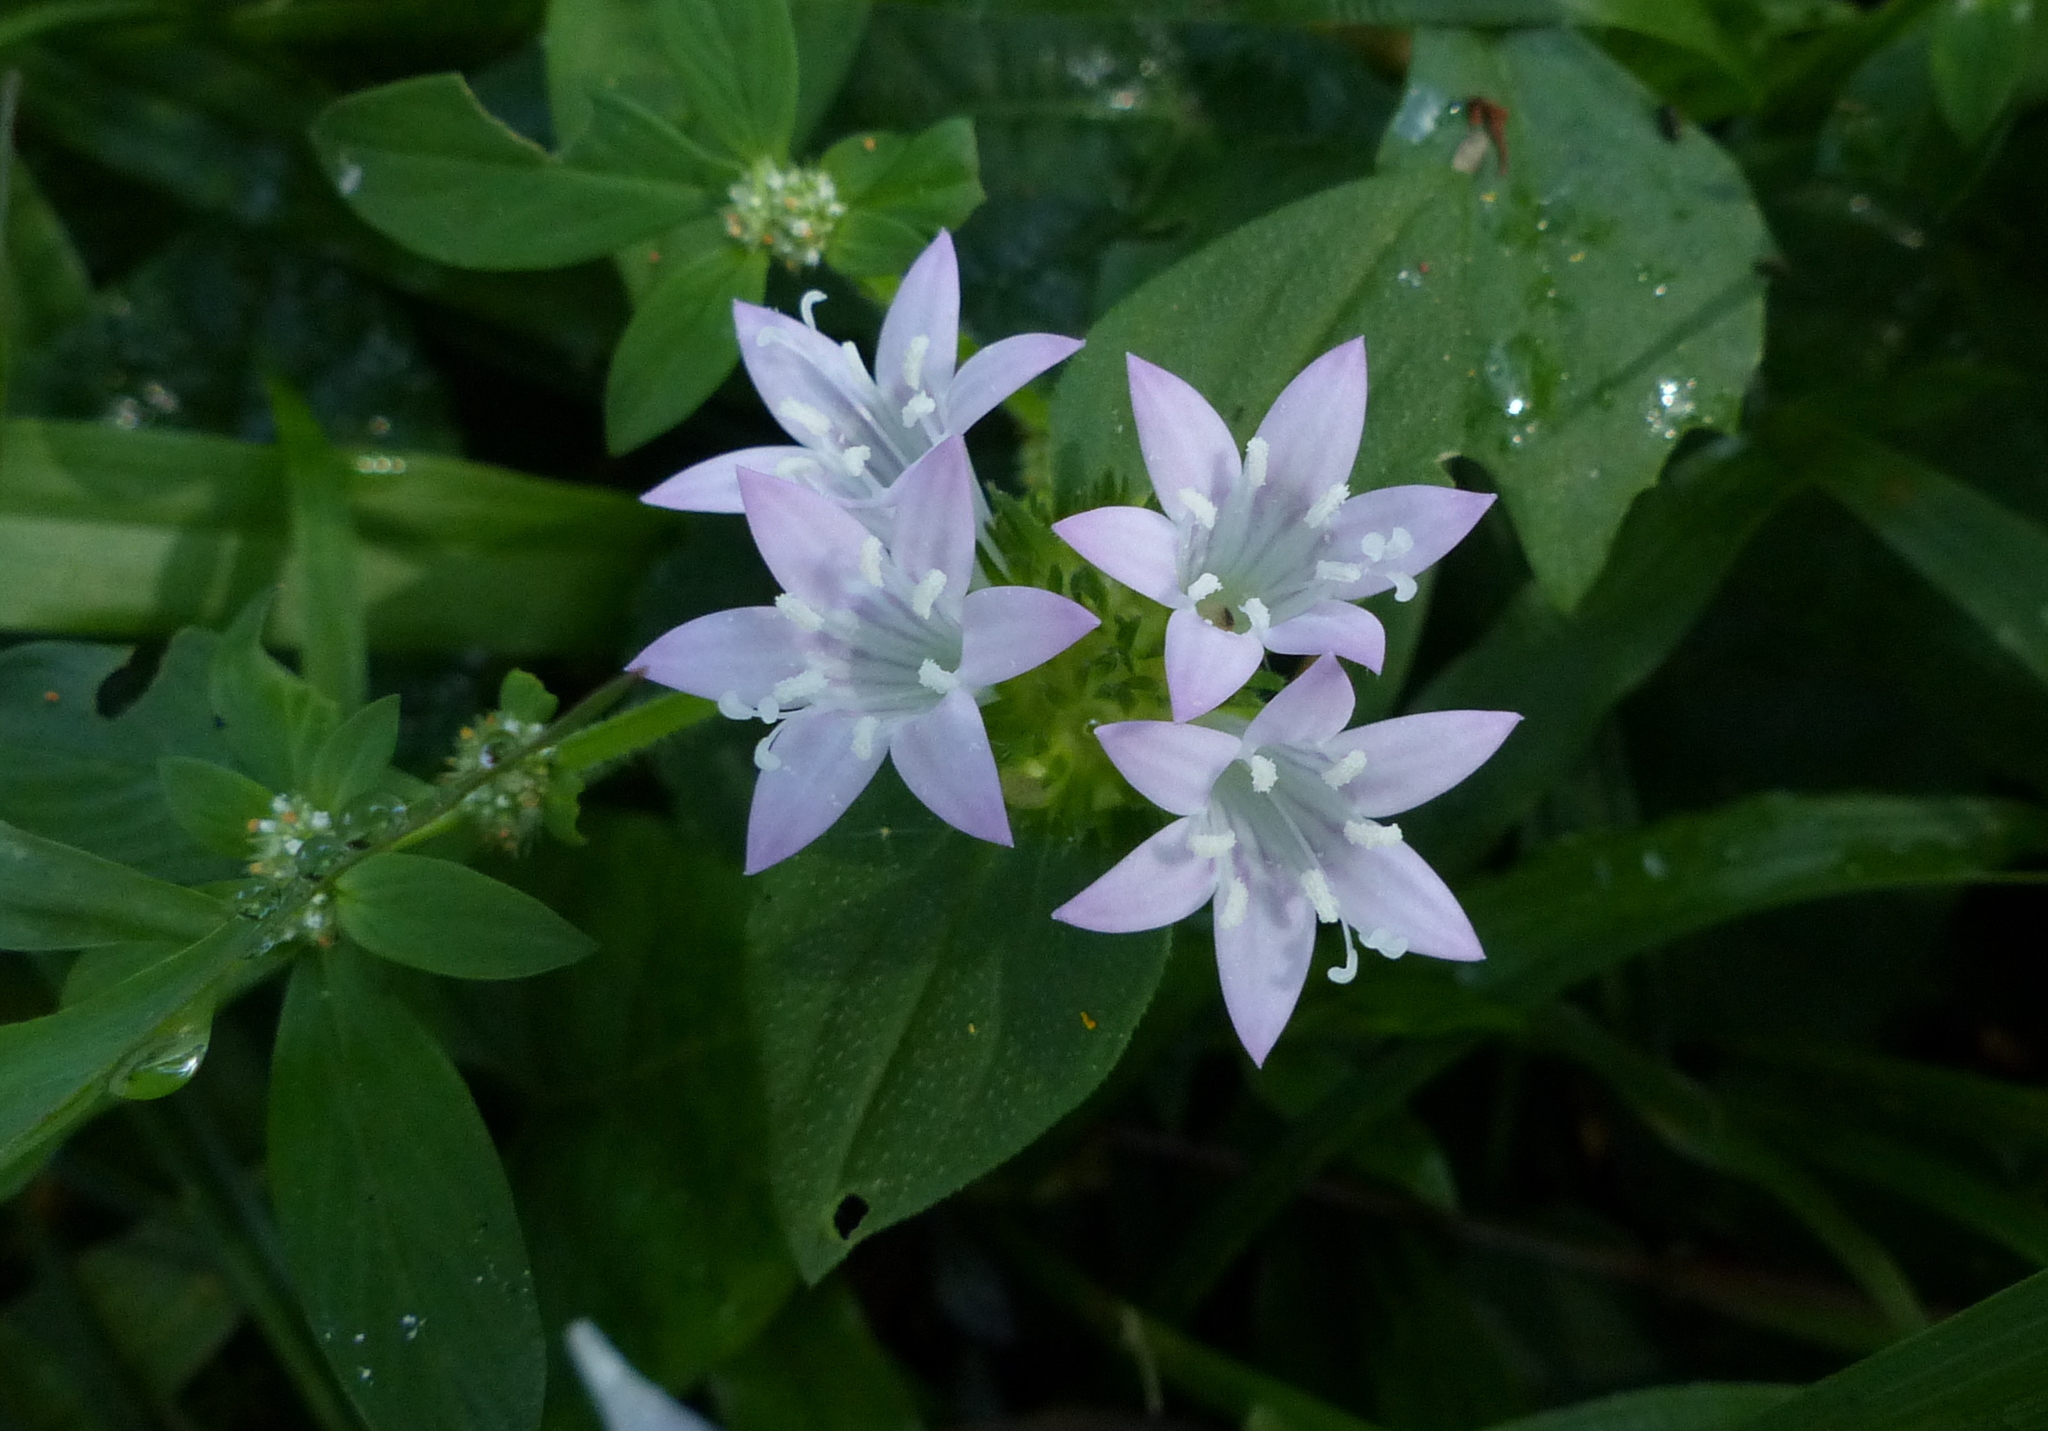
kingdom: Plantae
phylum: Tracheophyta
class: Magnoliopsida
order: Gentianales
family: Rubiaceae
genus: Richardia
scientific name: Richardia grandiflora
